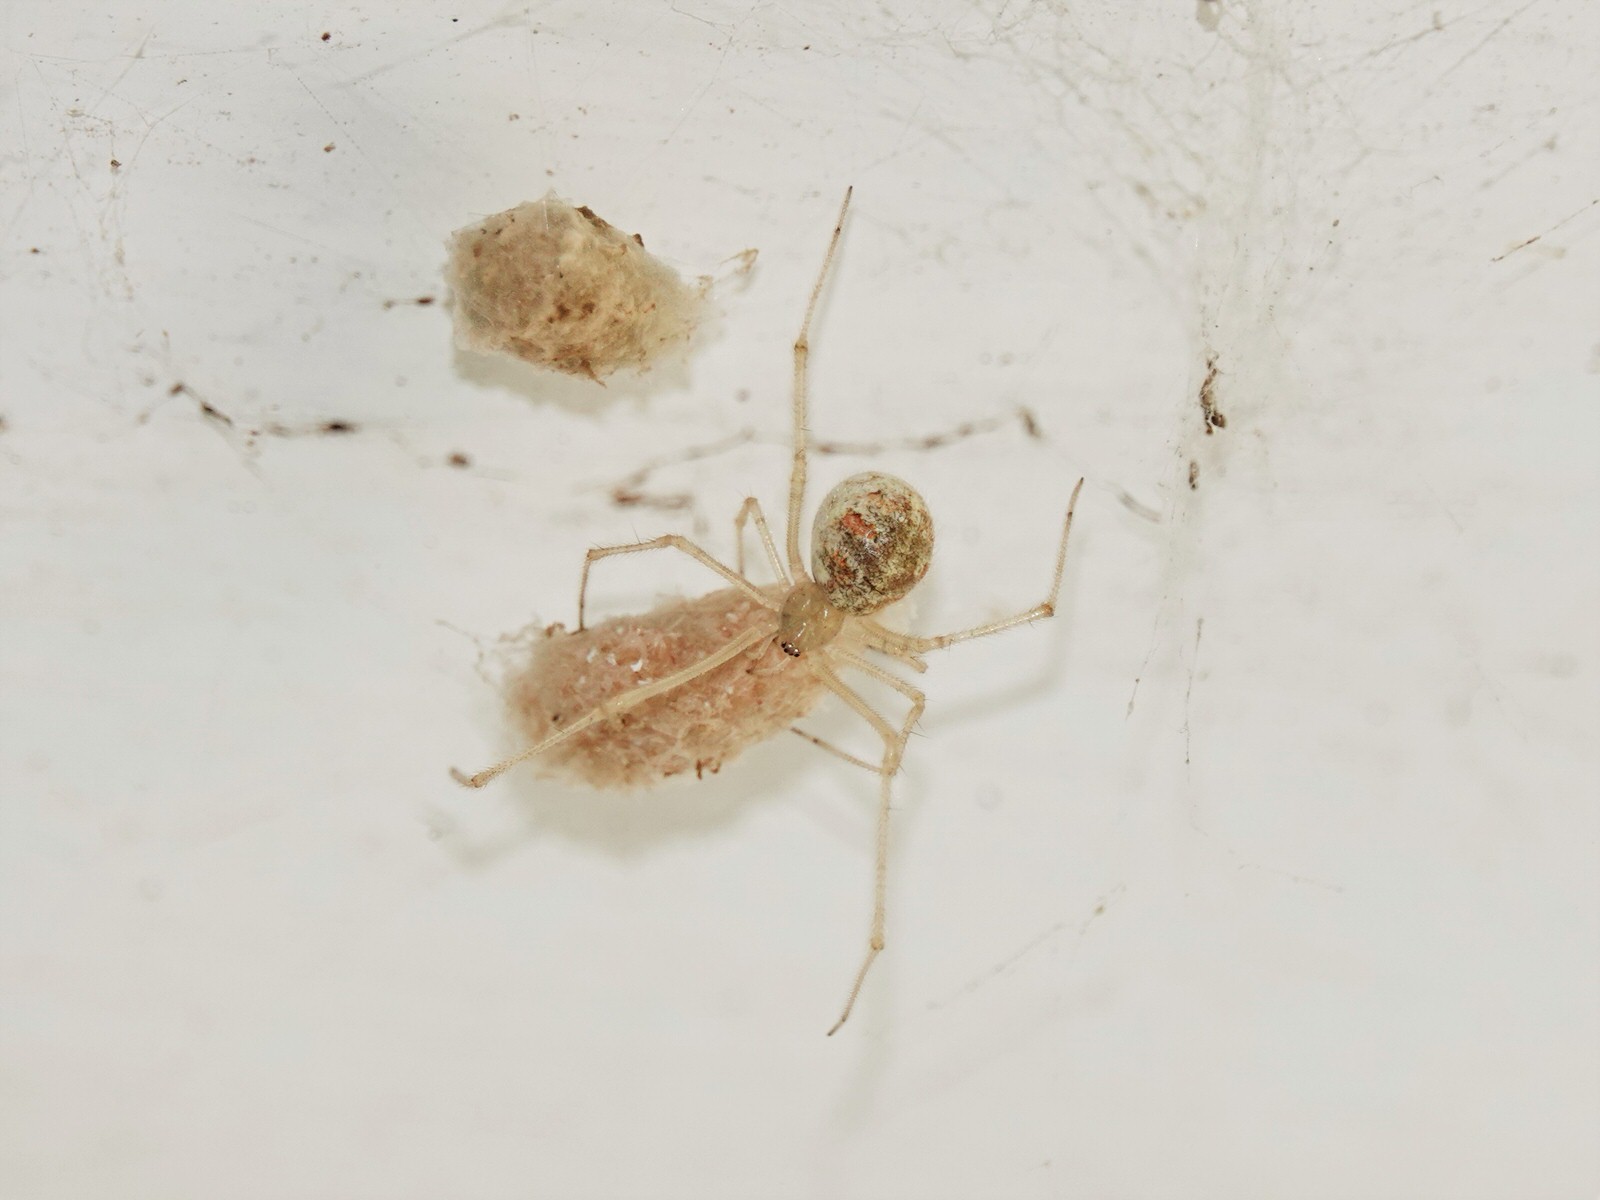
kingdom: Animalia
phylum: Arthropoda
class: Arachnida
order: Araneae
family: Theridiidae
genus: Cryptachaea
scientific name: Cryptachaea gigantipes
